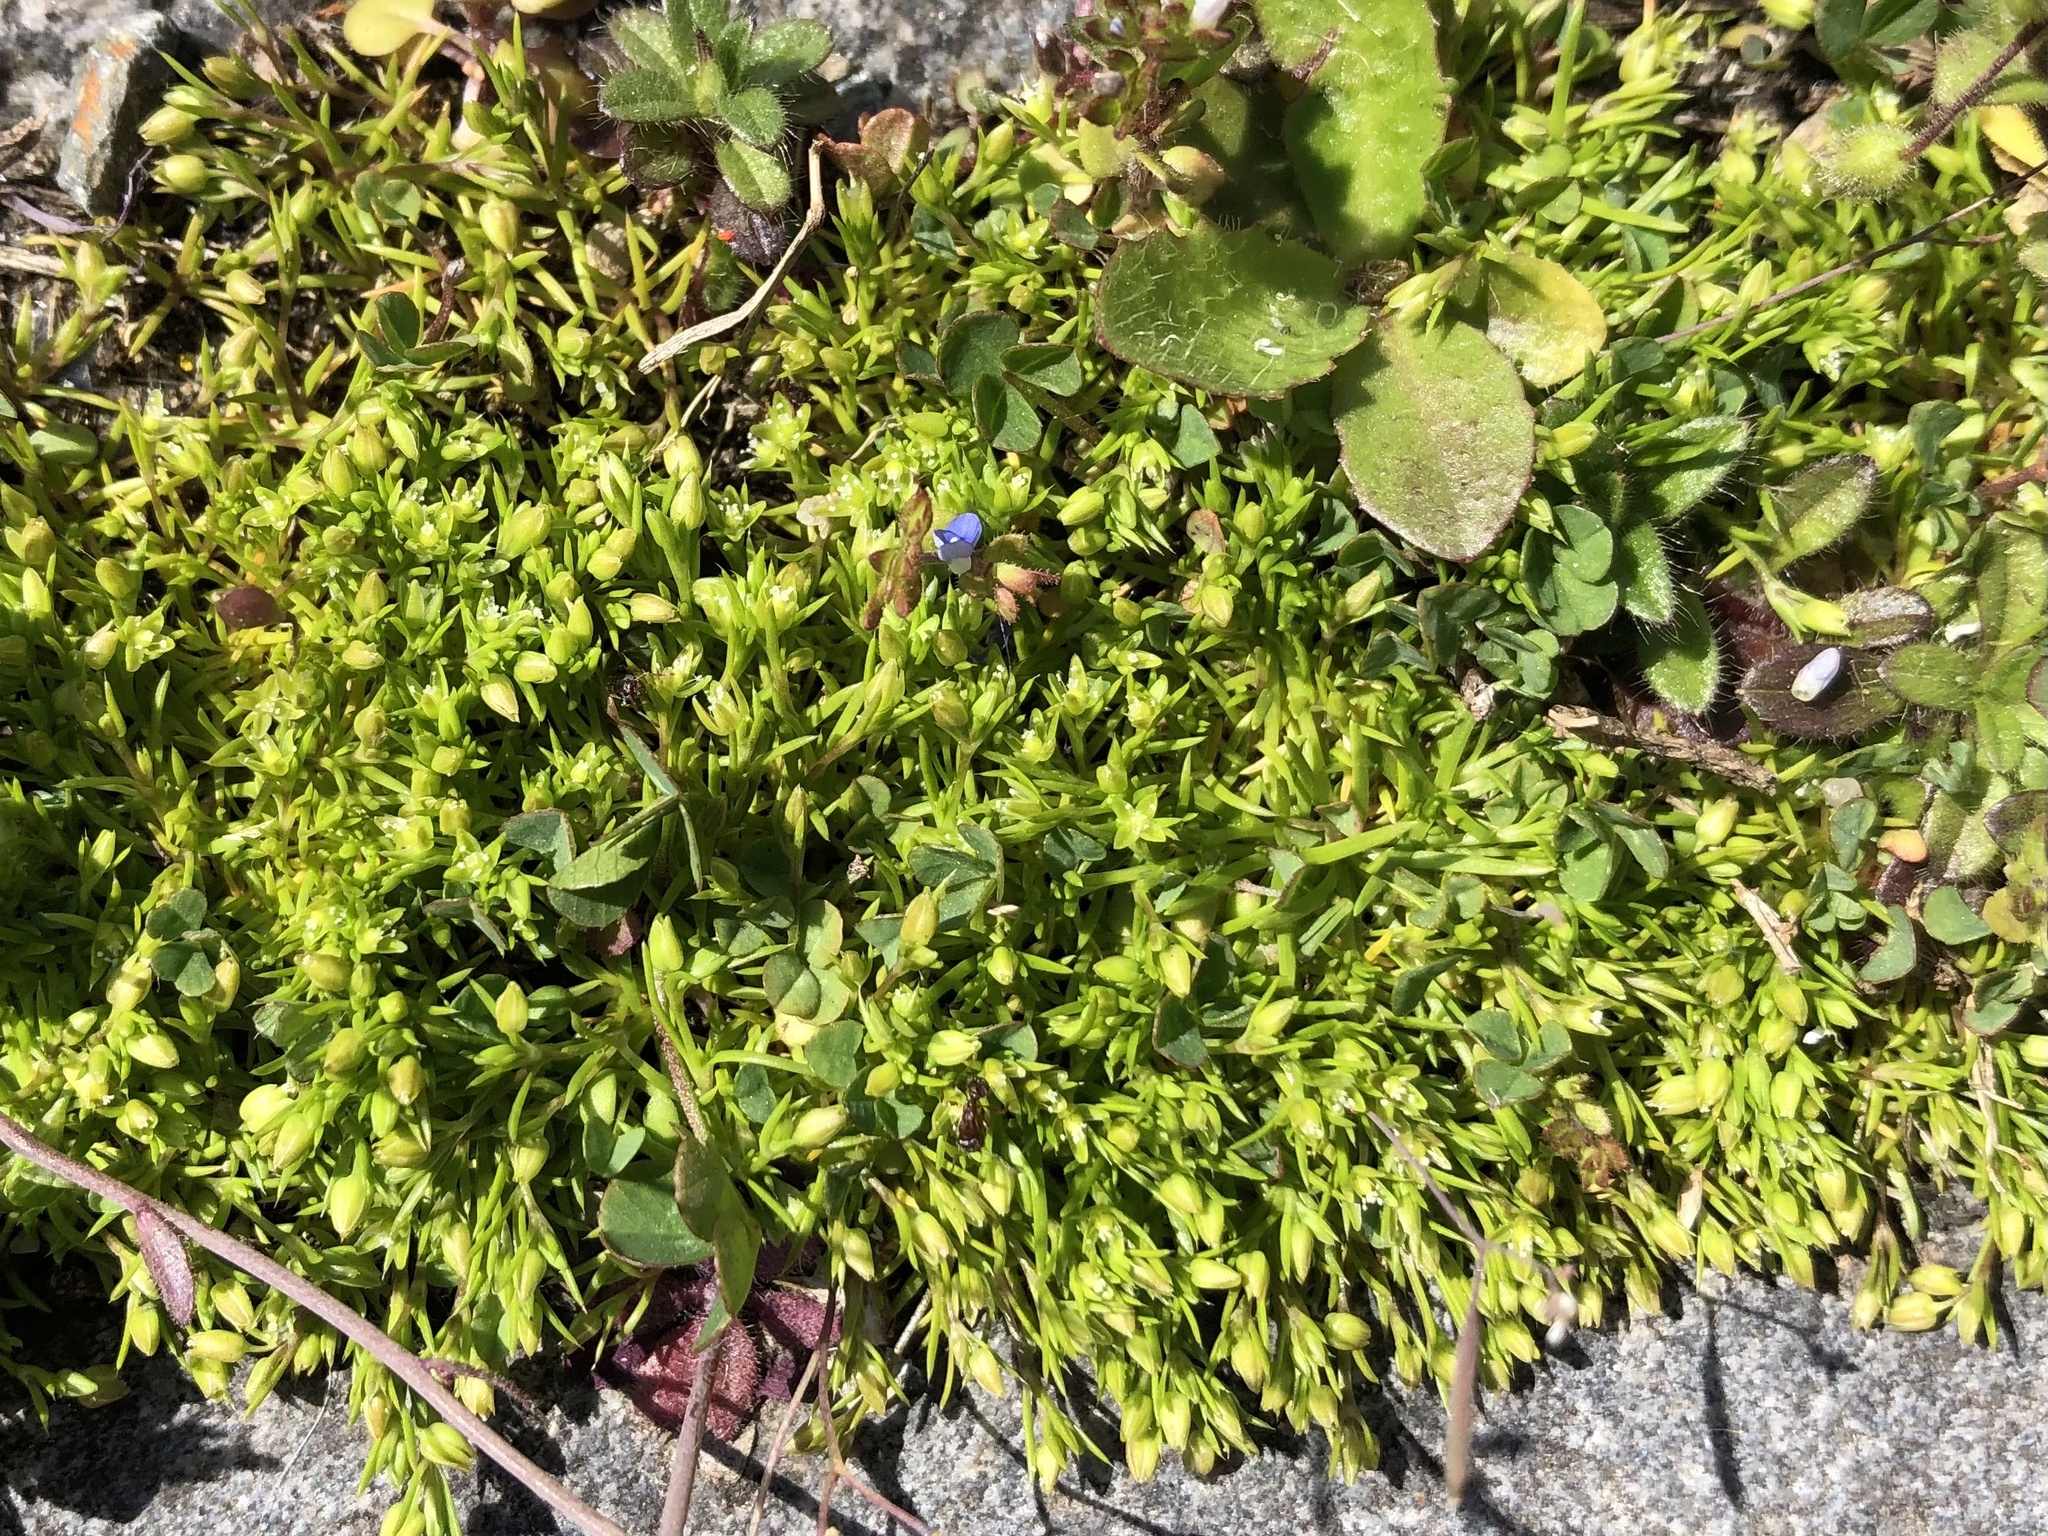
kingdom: Plantae
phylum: Tracheophyta
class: Magnoliopsida
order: Caryophyllales
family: Caryophyllaceae
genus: Sagina
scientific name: Sagina procumbens
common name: Procumbent pearlwort
